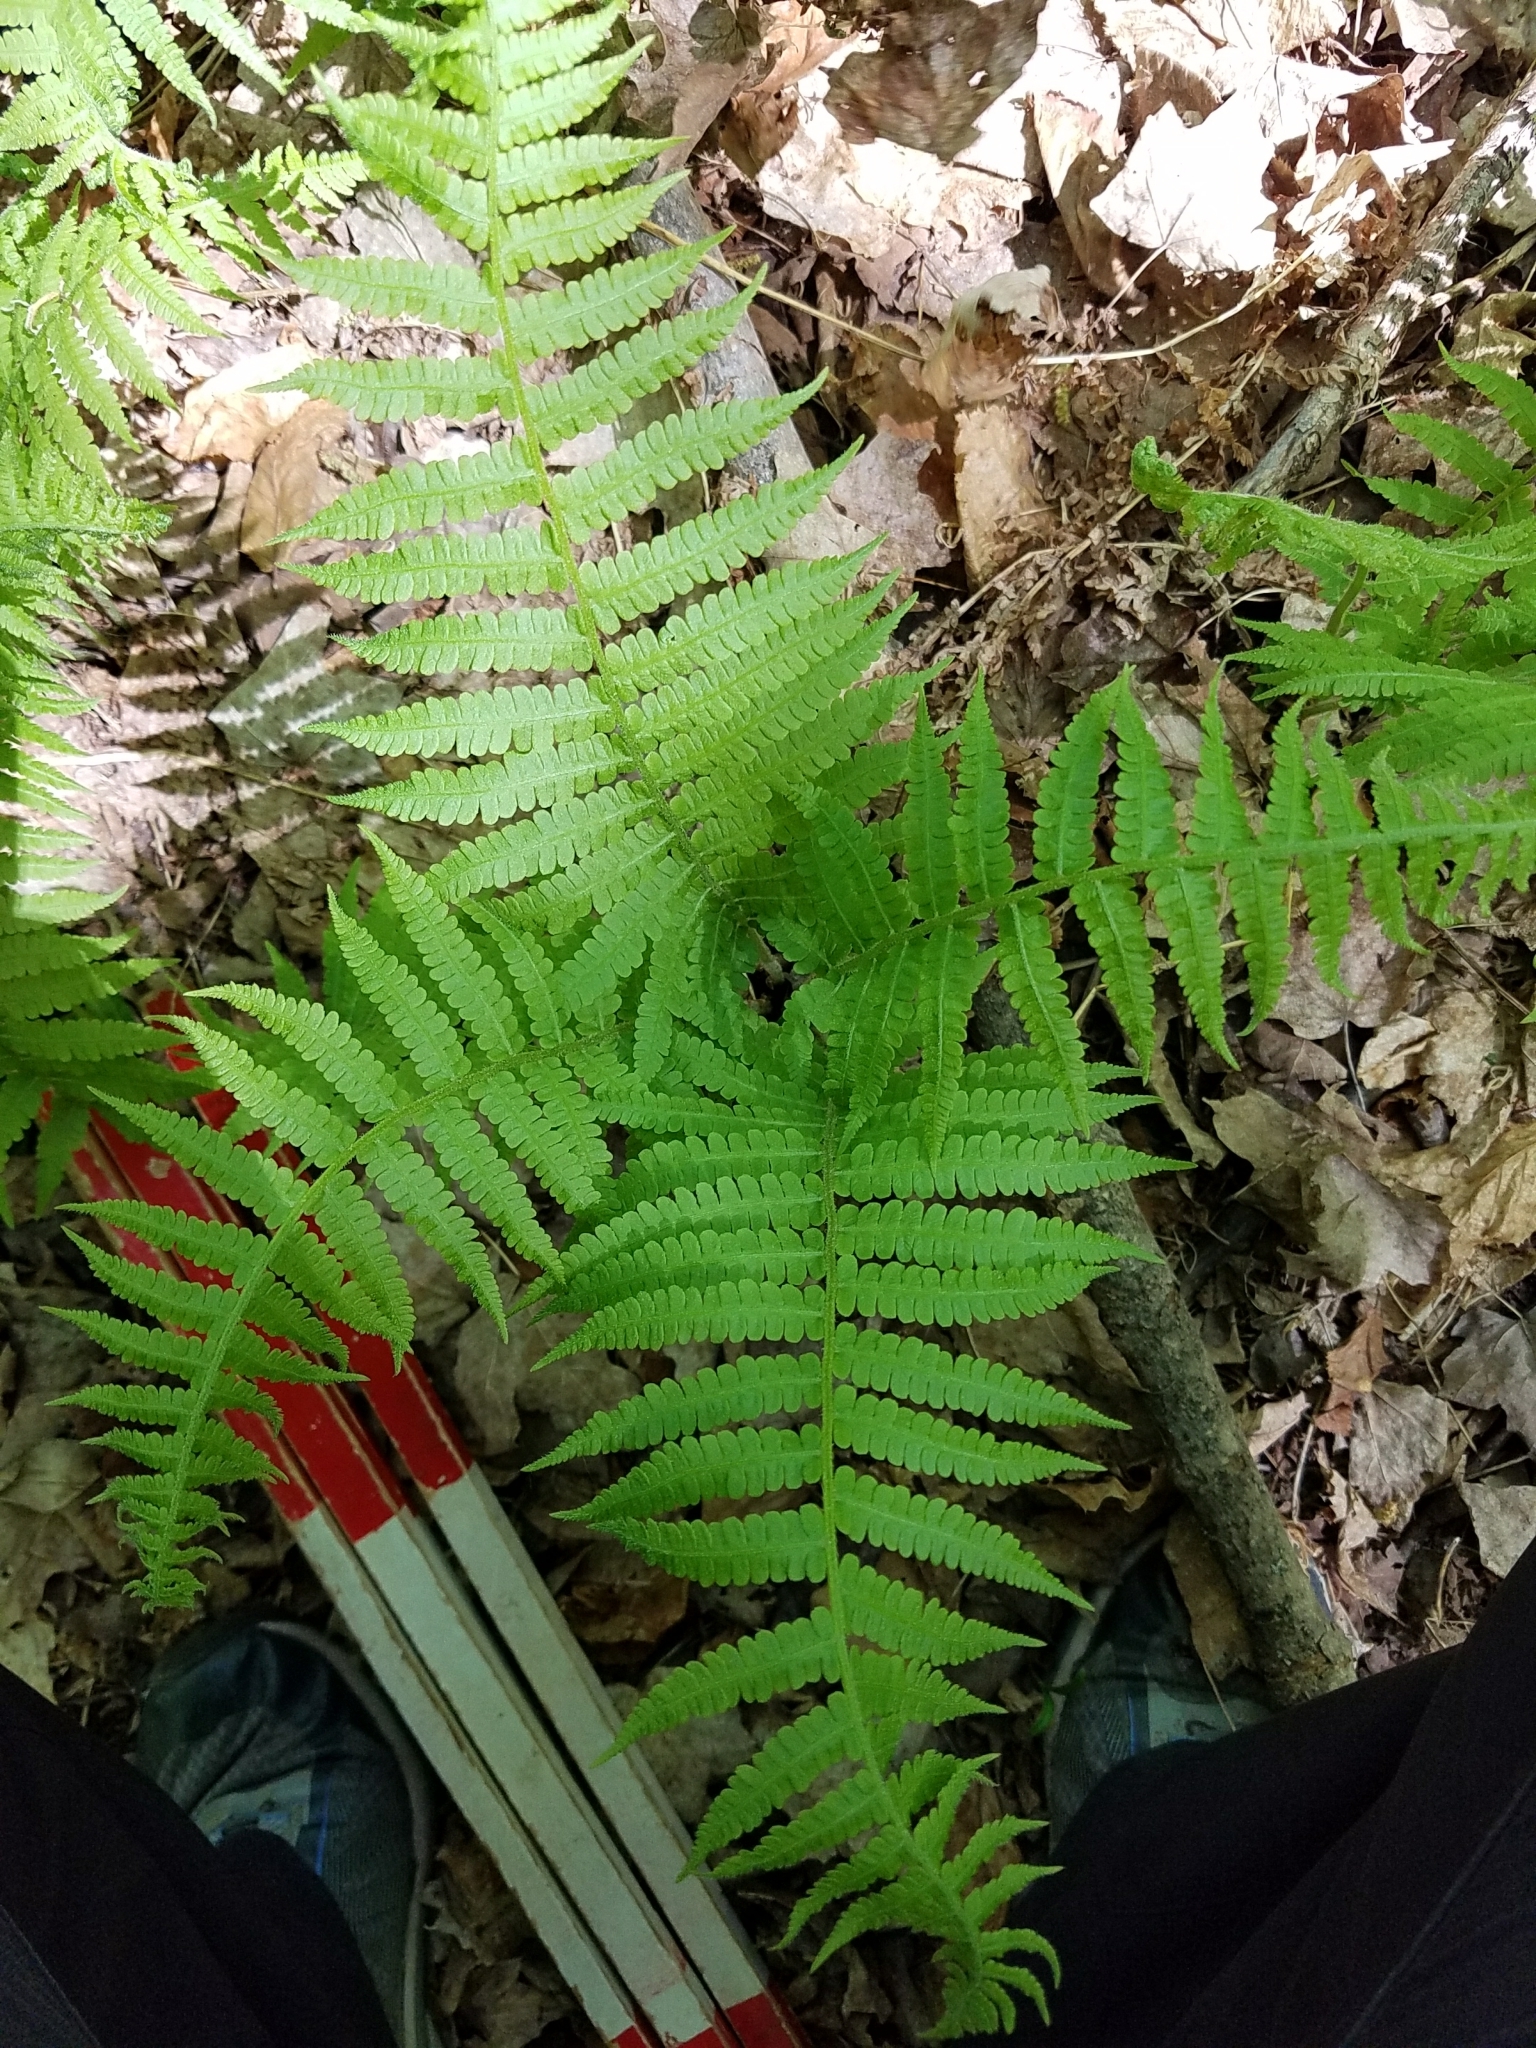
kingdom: Plantae
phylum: Tracheophyta
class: Polypodiopsida
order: Polypodiales
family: Athyriaceae
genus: Deparia
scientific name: Deparia acrostichoides
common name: Silver false spleenwort
